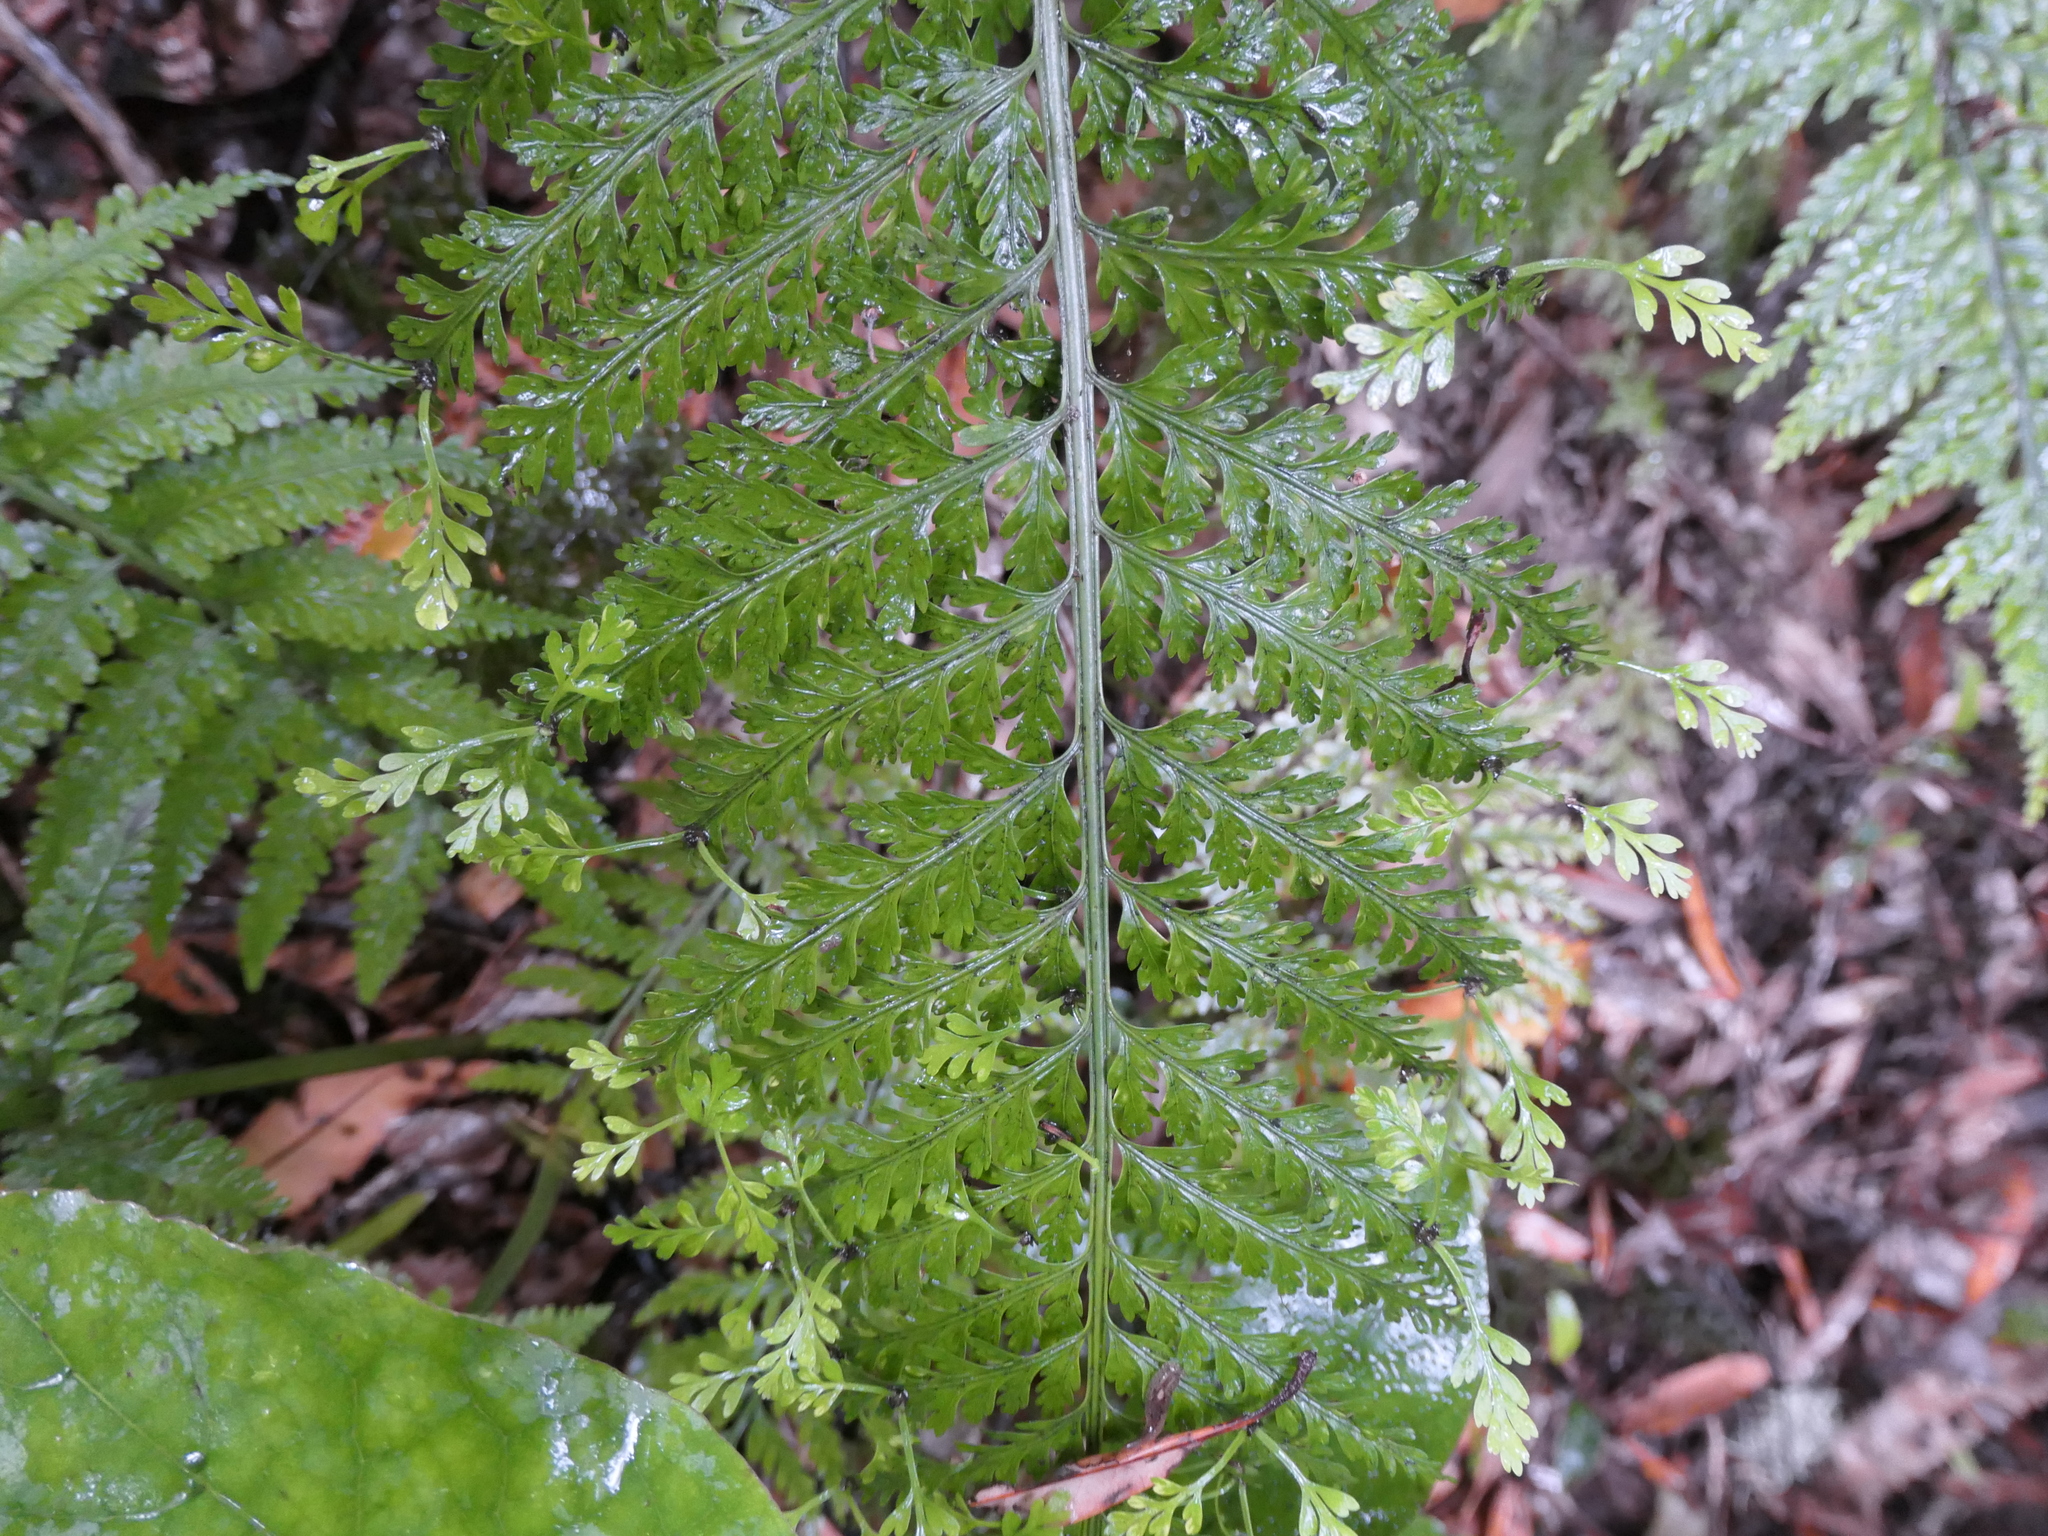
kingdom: Plantae
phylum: Tracheophyta
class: Polypodiopsida
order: Polypodiales
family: Aspleniaceae
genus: Asplenium
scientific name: Asplenium bulbiferum
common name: Mother fern
